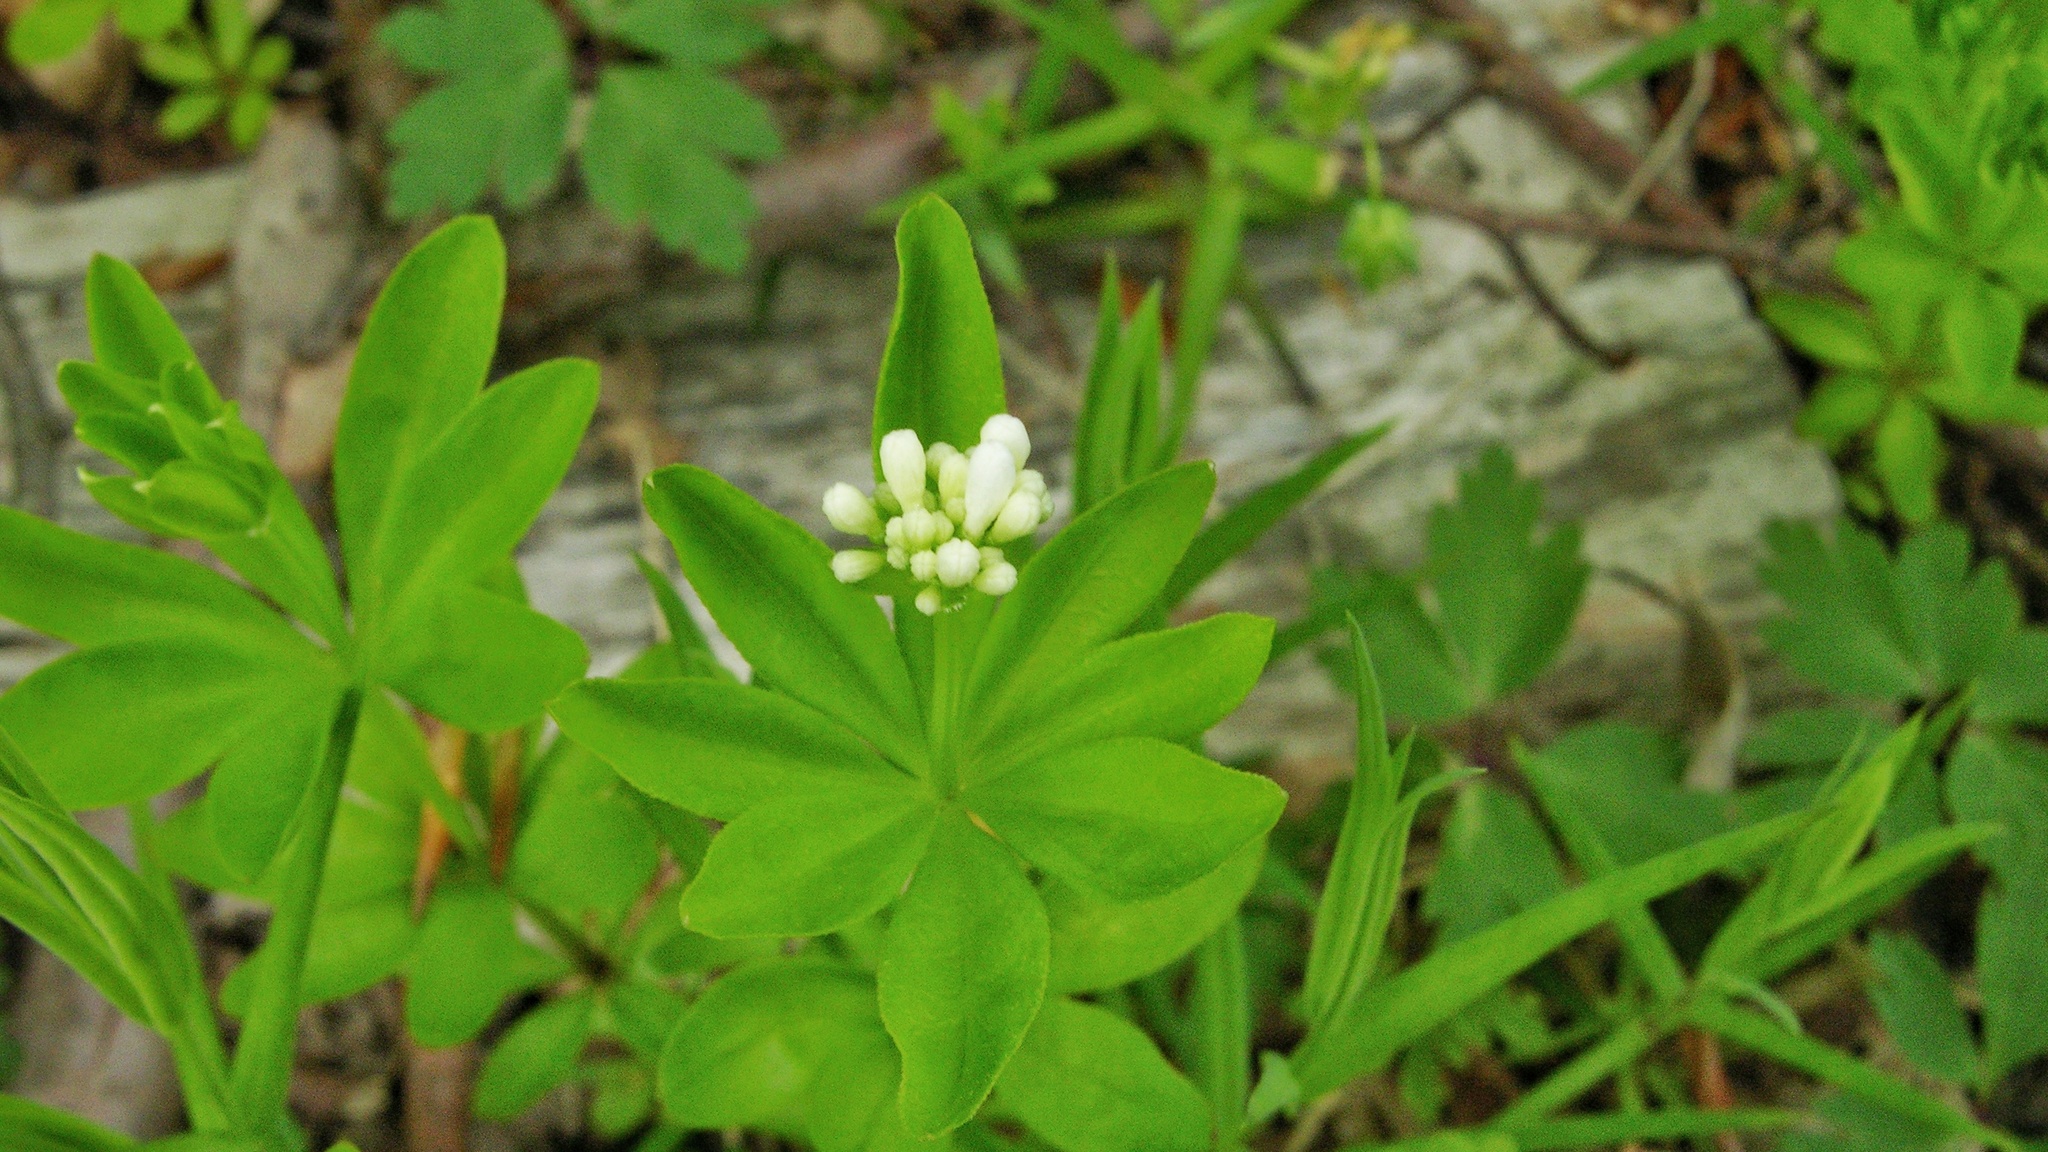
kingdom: Plantae
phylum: Tracheophyta
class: Magnoliopsida
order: Gentianales
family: Rubiaceae
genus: Galium
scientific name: Galium odoratum
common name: Sweet woodruff
